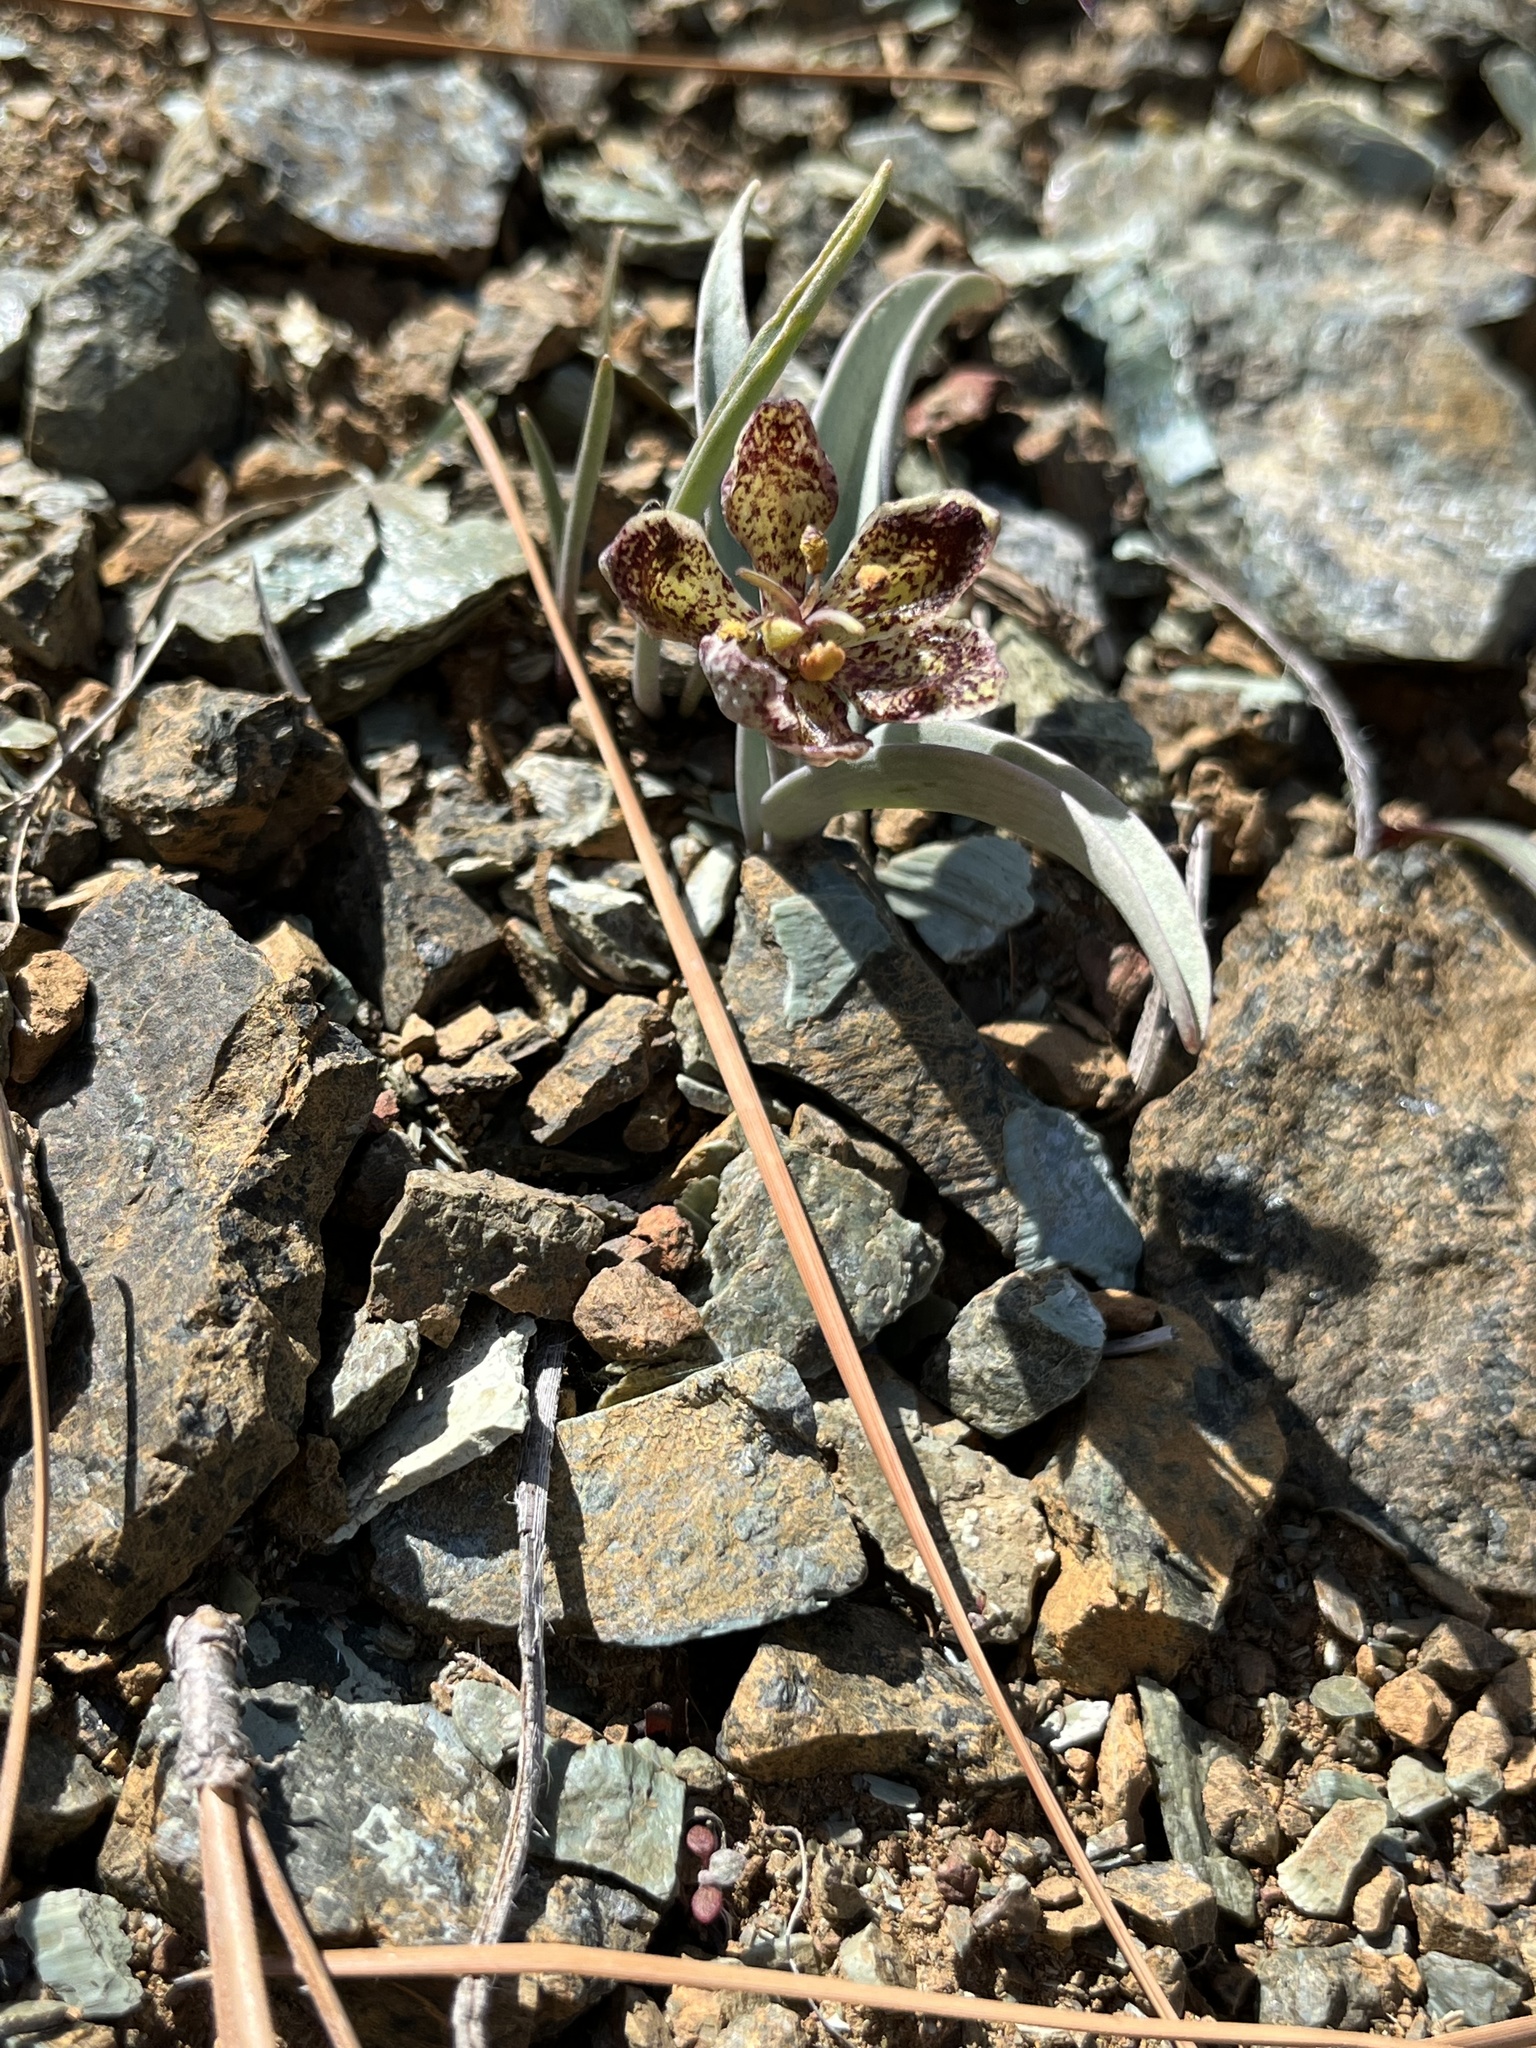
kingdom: Plantae
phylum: Tracheophyta
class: Liliopsida
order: Liliales
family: Liliaceae
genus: Fritillaria
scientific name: Fritillaria falcata
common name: Talus fritillary
